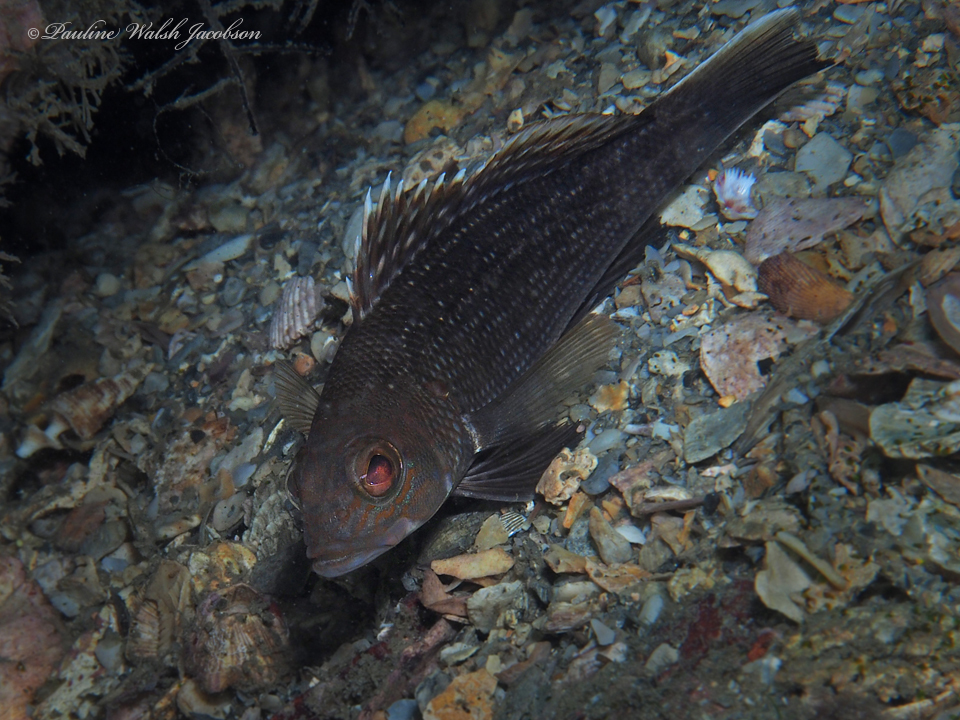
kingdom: Animalia
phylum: Chordata
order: Perciformes
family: Serranidae
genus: Centropristis
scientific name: Centropristis striata
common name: Black sea bass
